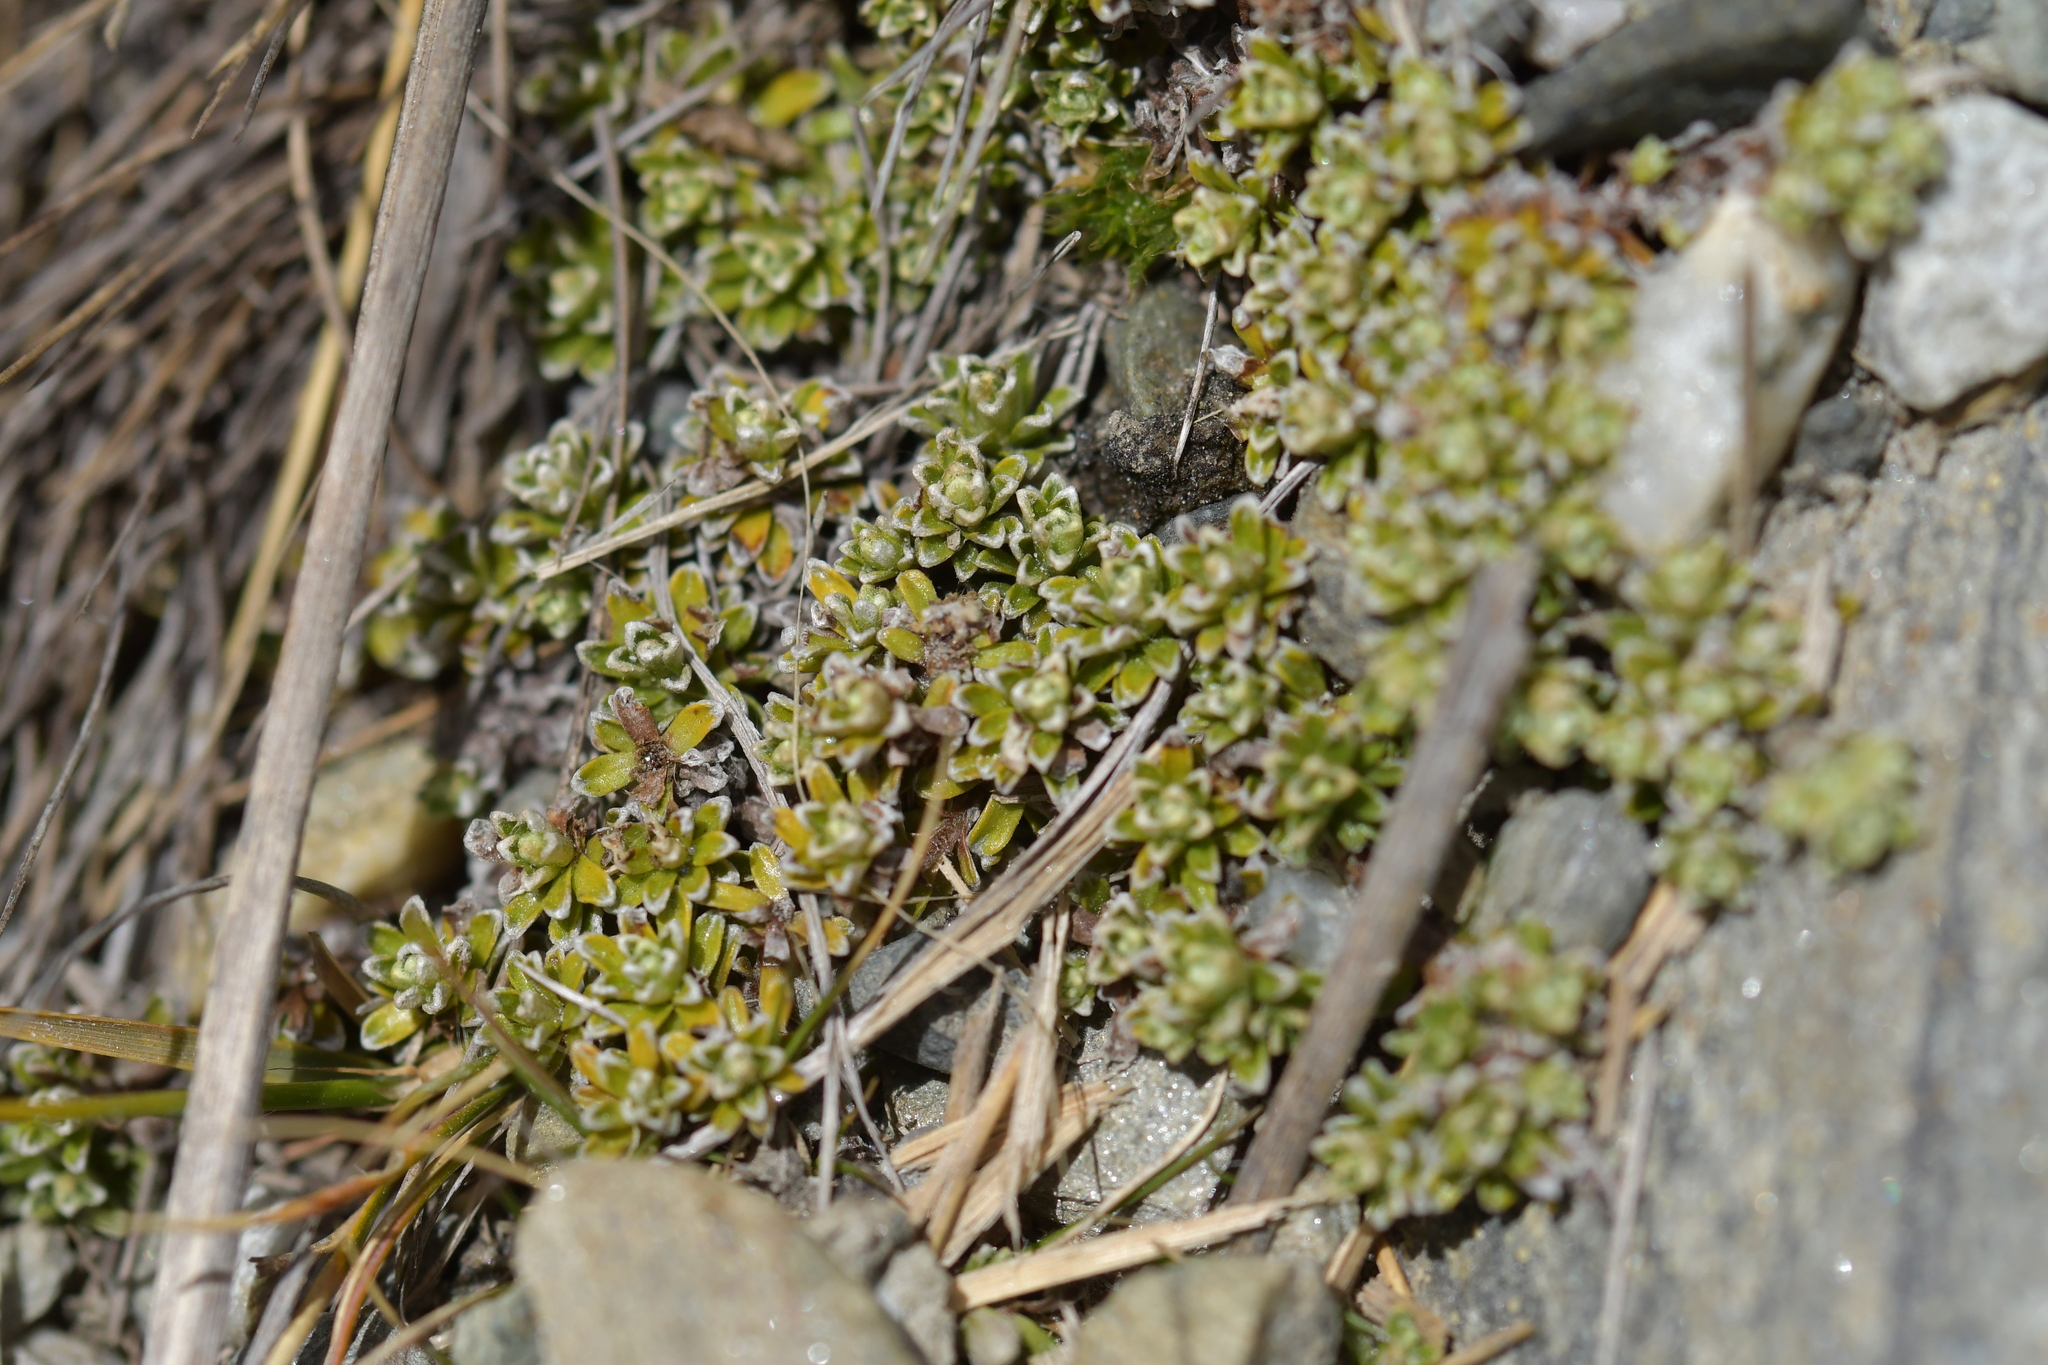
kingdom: Plantae
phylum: Tracheophyta
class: Magnoliopsida
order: Asterales
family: Asteraceae
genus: Raoulia
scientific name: Raoulia subsericea
